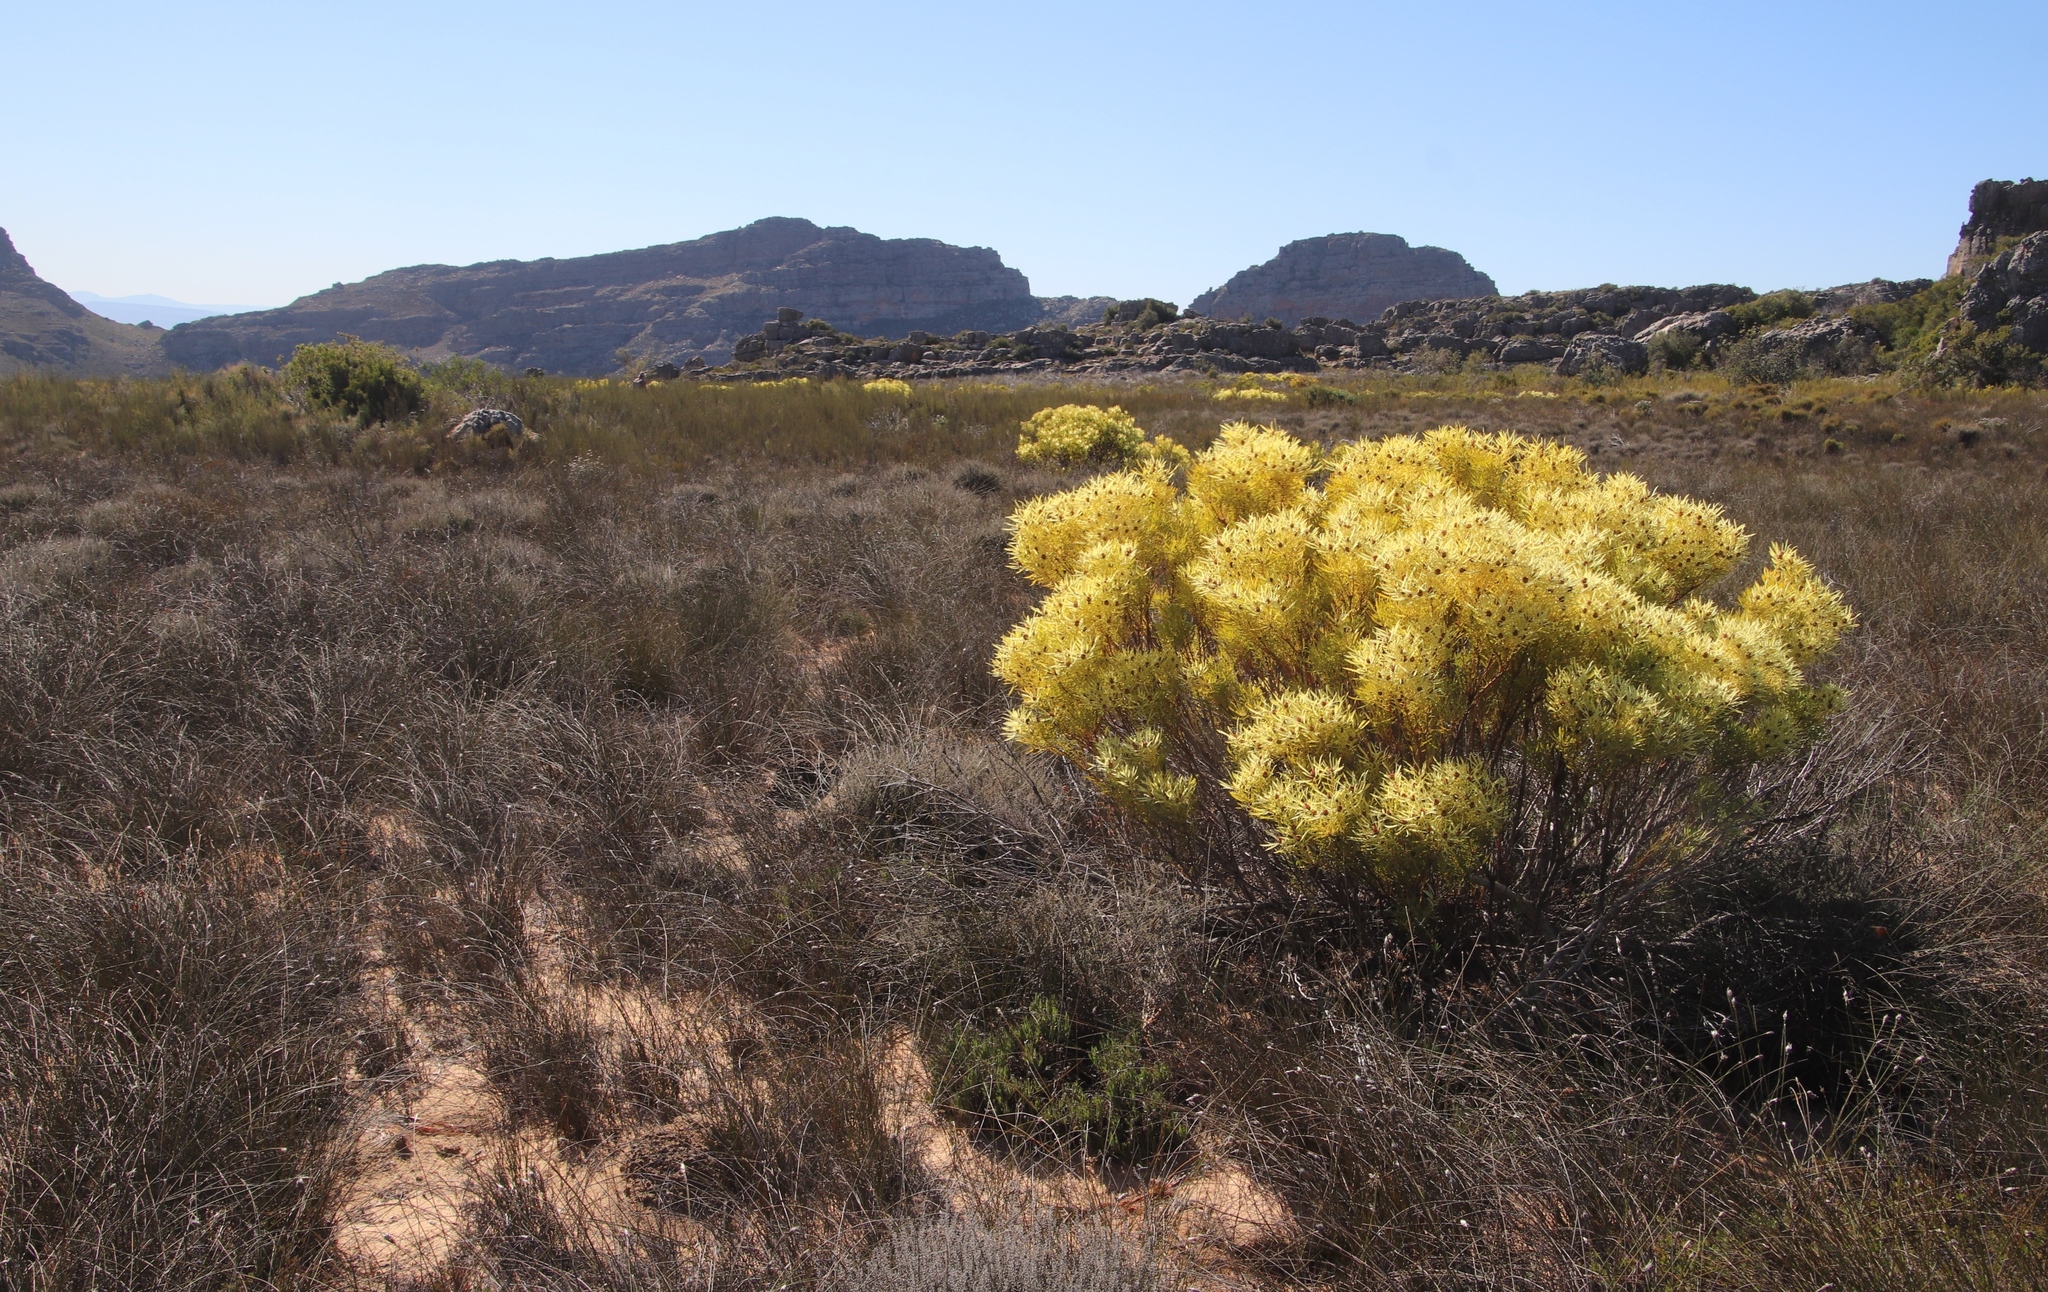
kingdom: Plantae
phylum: Tracheophyta
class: Magnoliopsida
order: Proteales
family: Proteaceae
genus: Leucadendron
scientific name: Leucadendron salignum
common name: Common sunshine conebush
